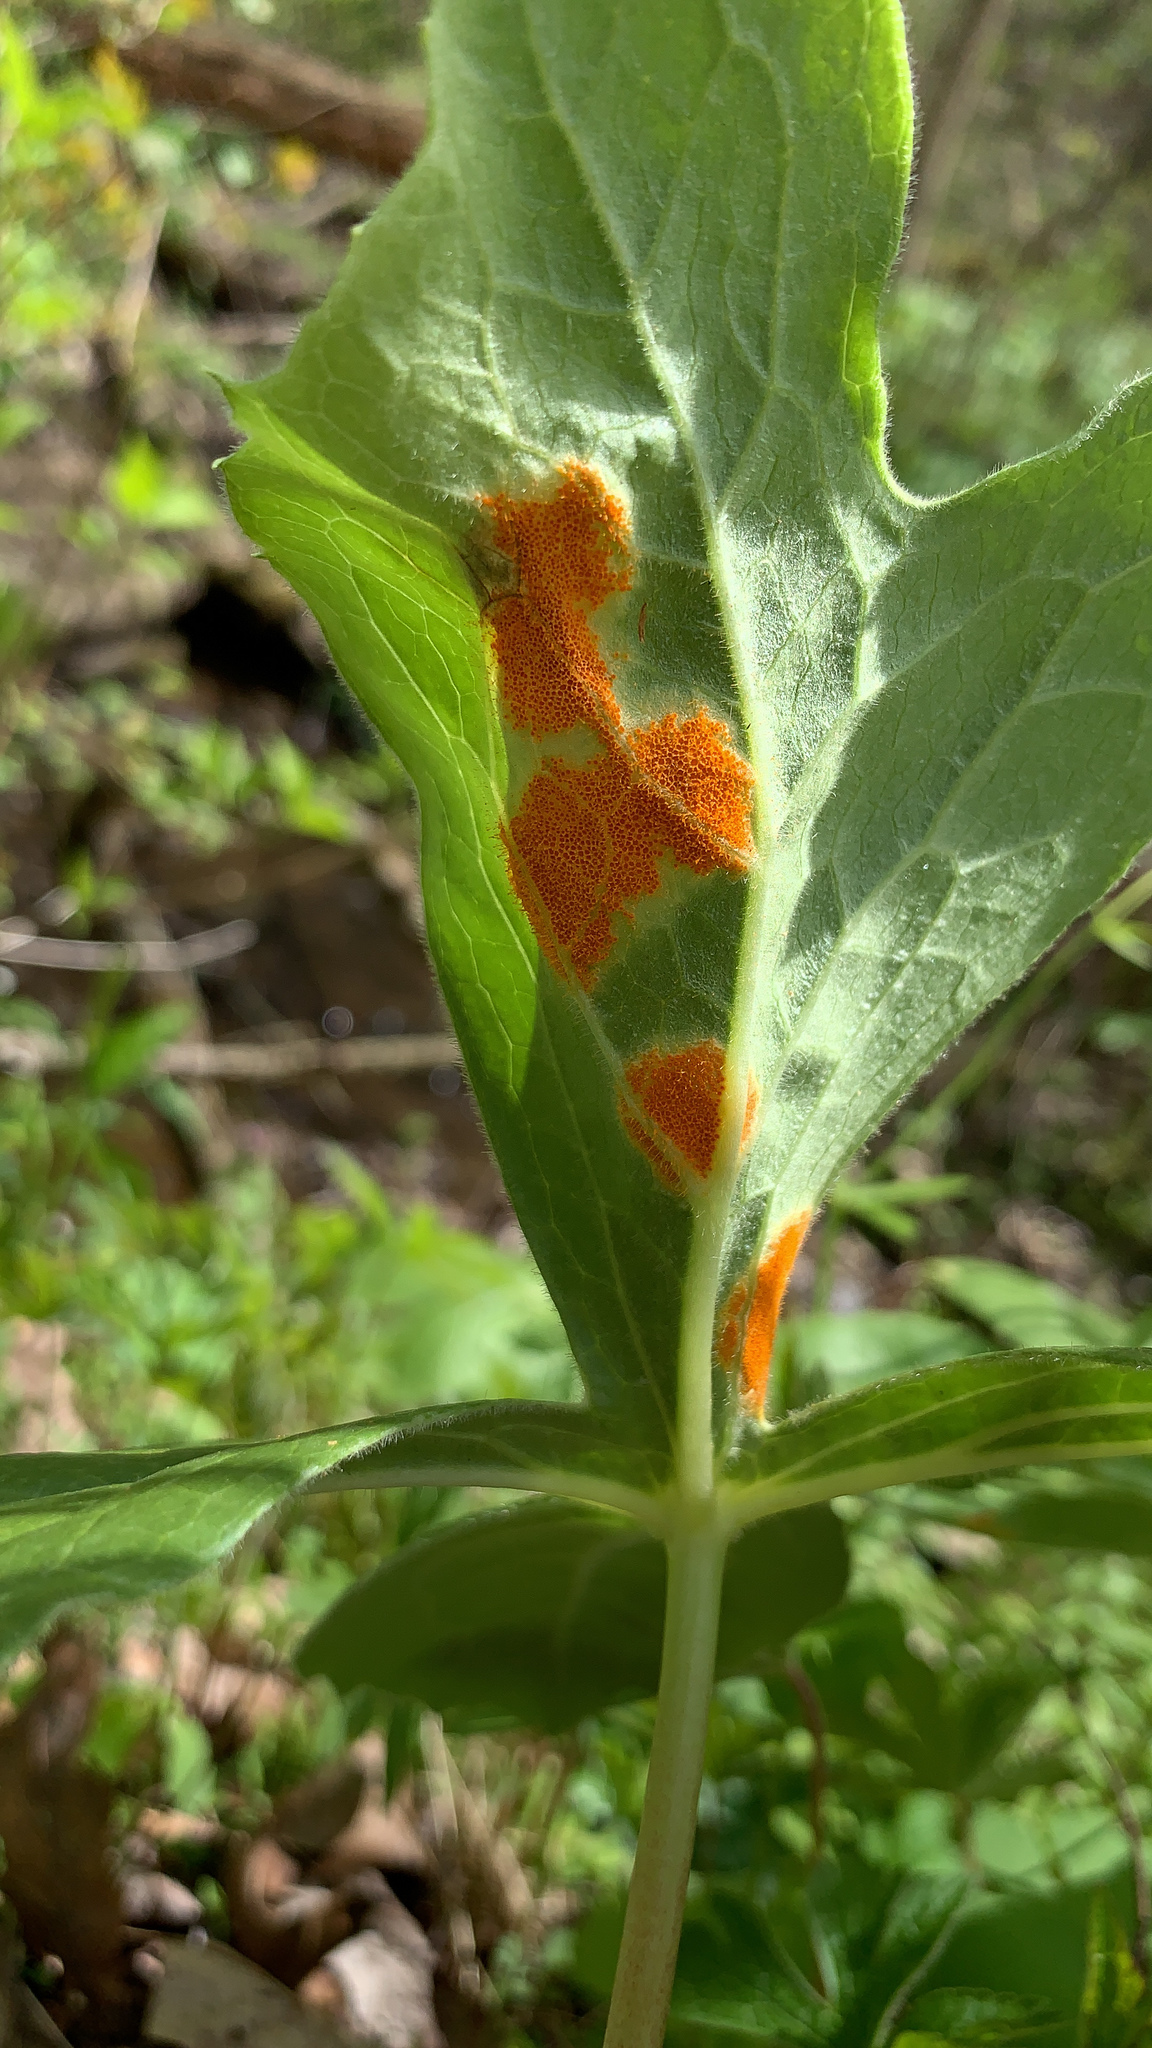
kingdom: Fungi
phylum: Basidiomycota
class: Pucciniomycetes
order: Pucciniales
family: Pucciniaceae
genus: Puccinia
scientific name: Puccinia podophylli
